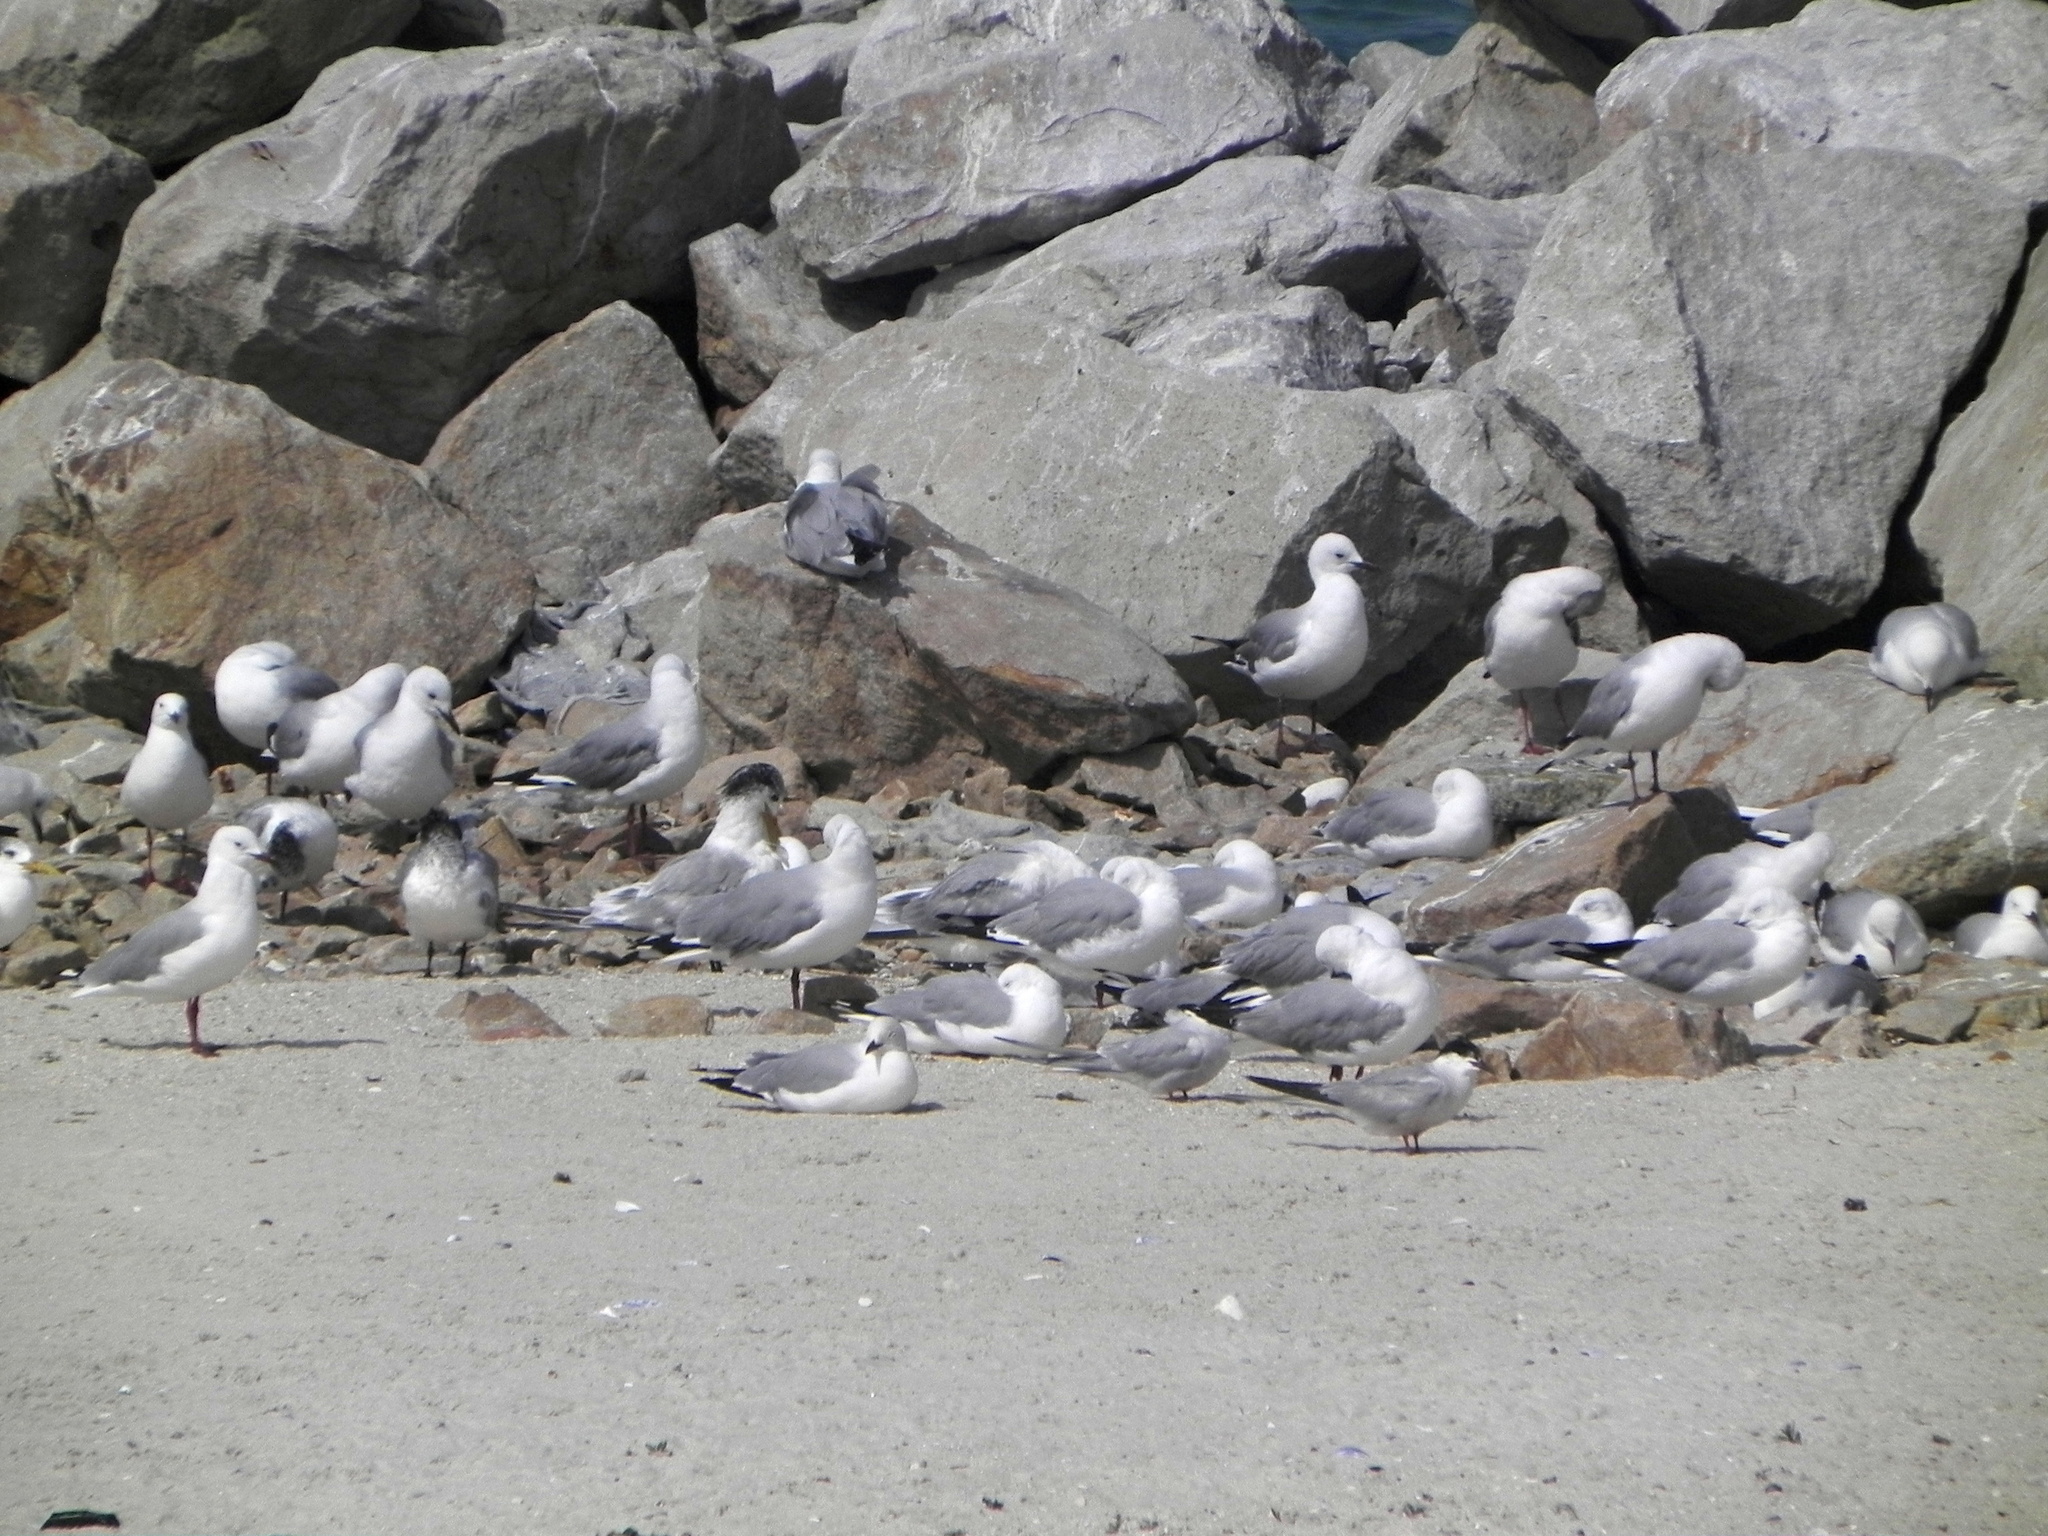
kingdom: Animalia
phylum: Chordata
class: Aves
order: Charadriiformes
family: Laridae
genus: Chroicocephalus
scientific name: Chroicocephalus hartlaubii
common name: Hartlaub's gull
